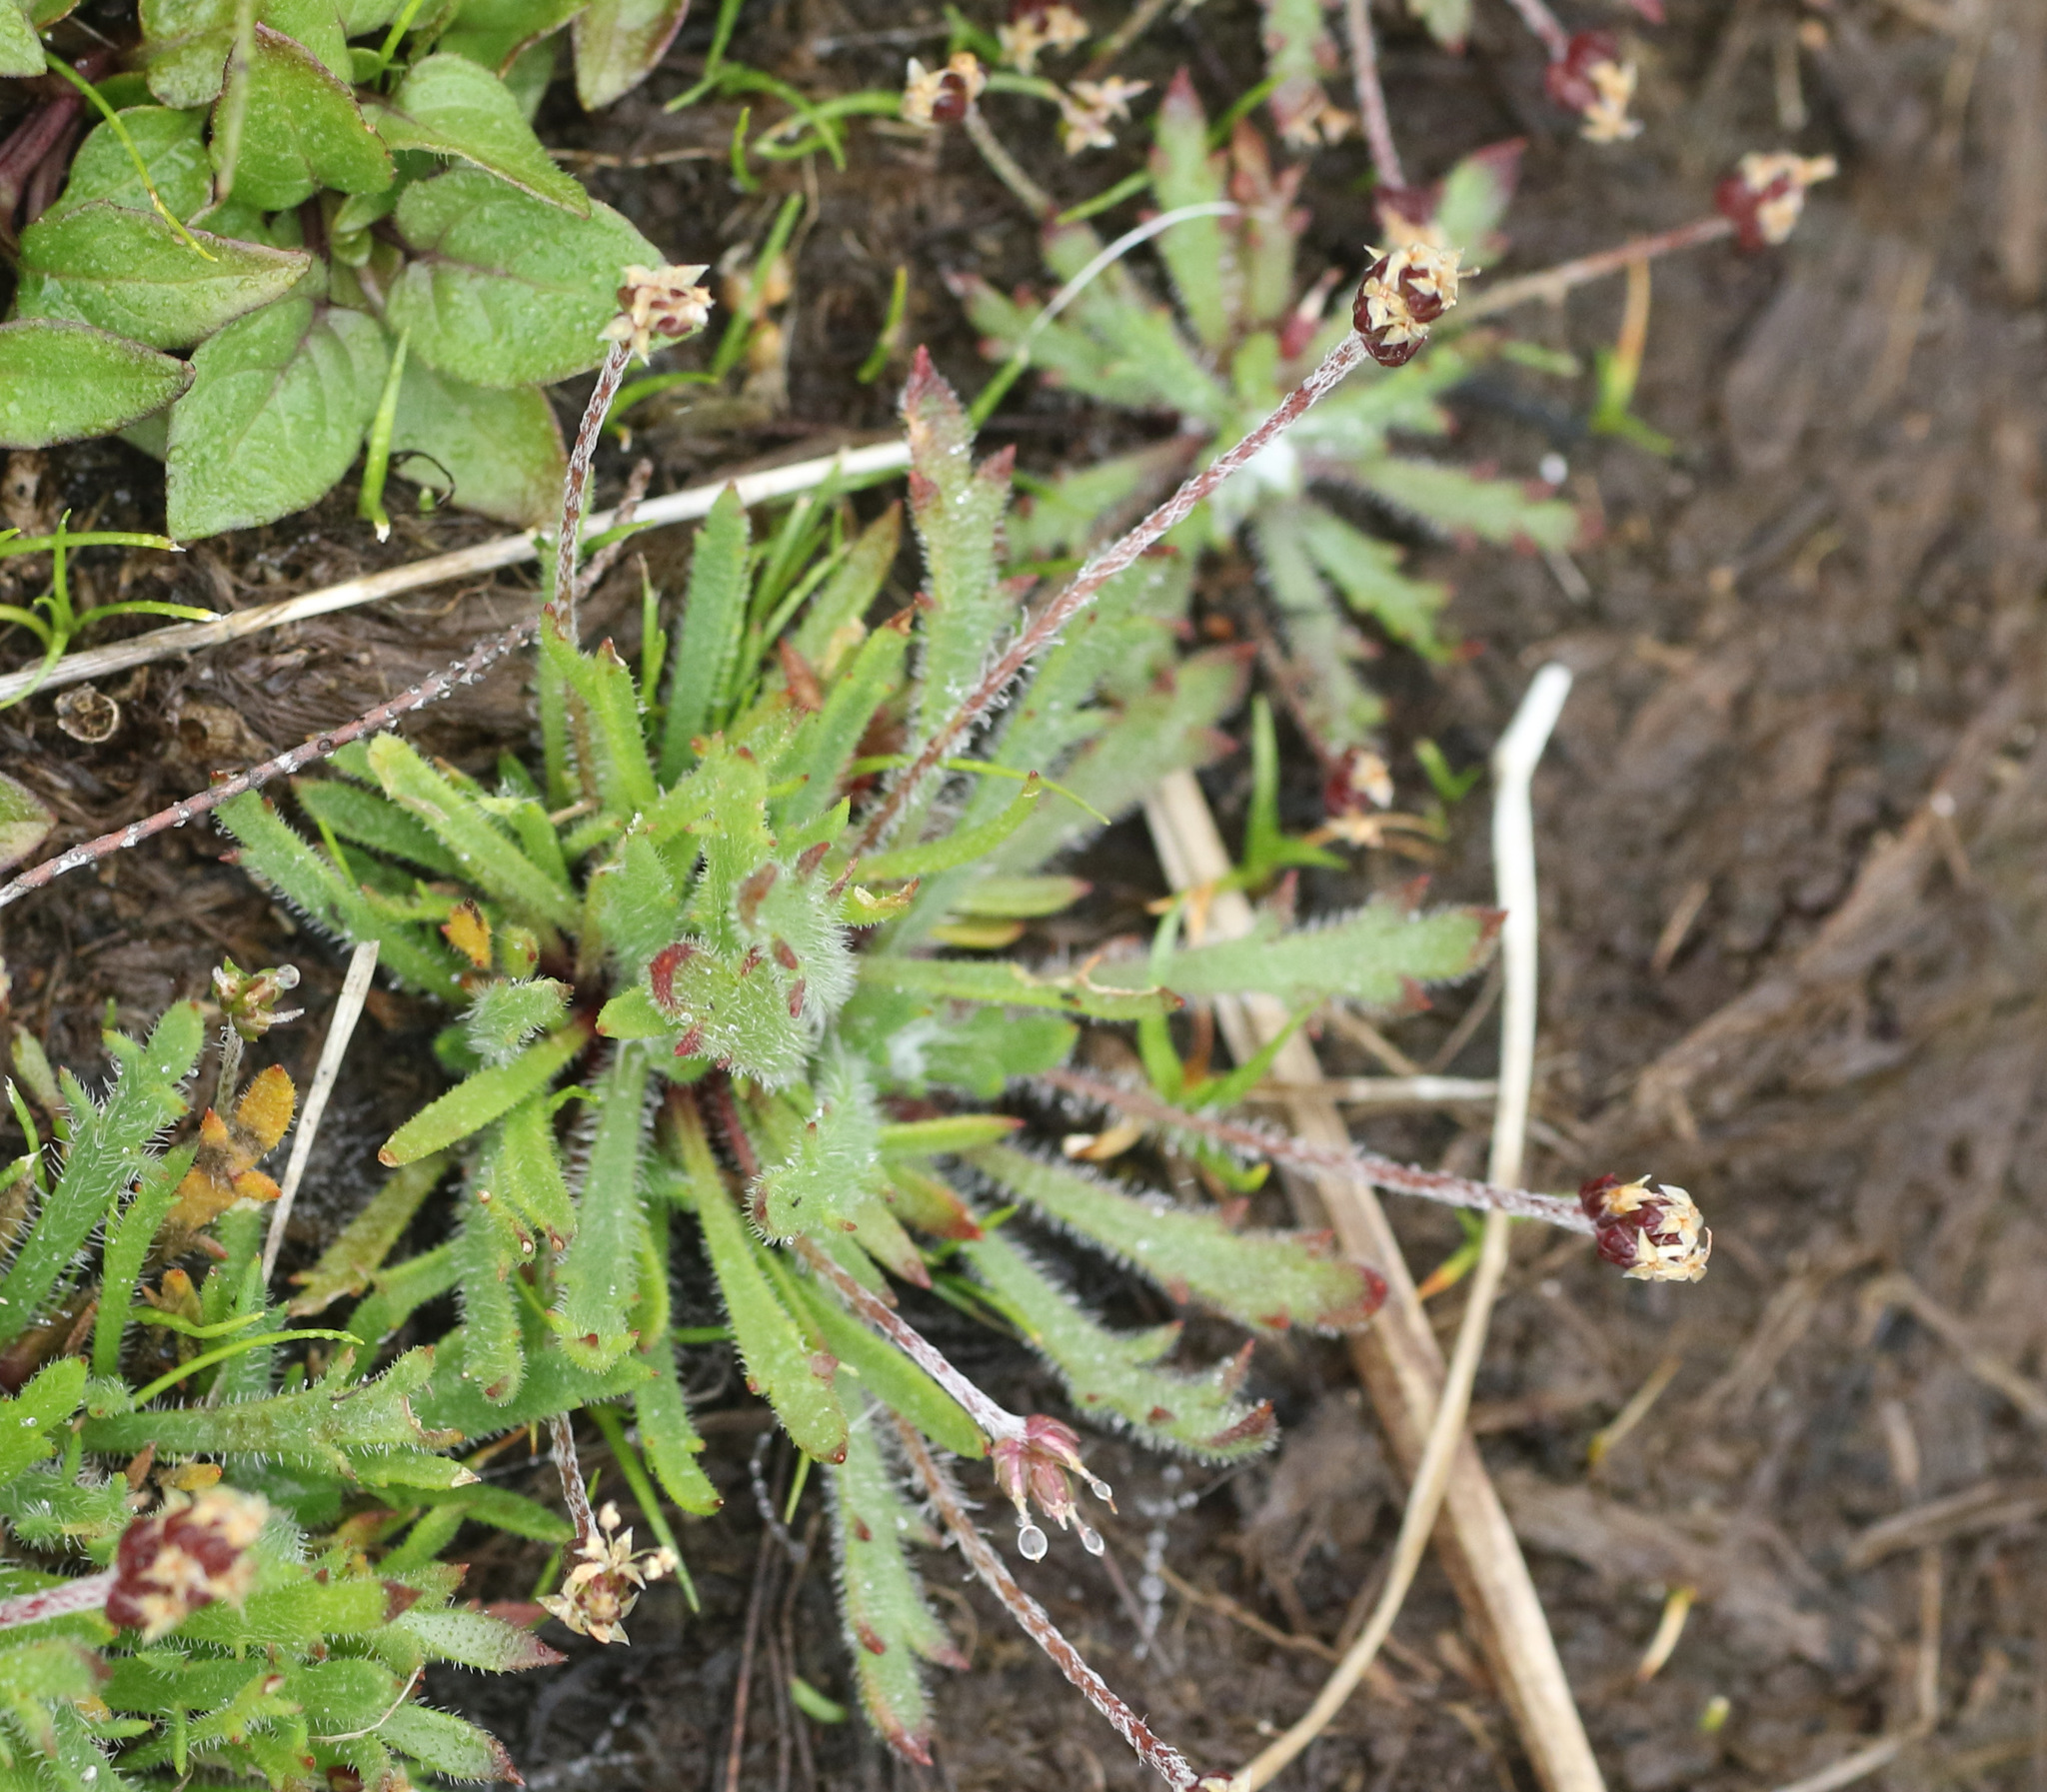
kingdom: Plantae
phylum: Tracheophyta
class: Magnoliopsida
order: Lamiales
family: Plantaginaceae
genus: Plantago
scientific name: Plantago coronopus
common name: Buck's-horn plantain
